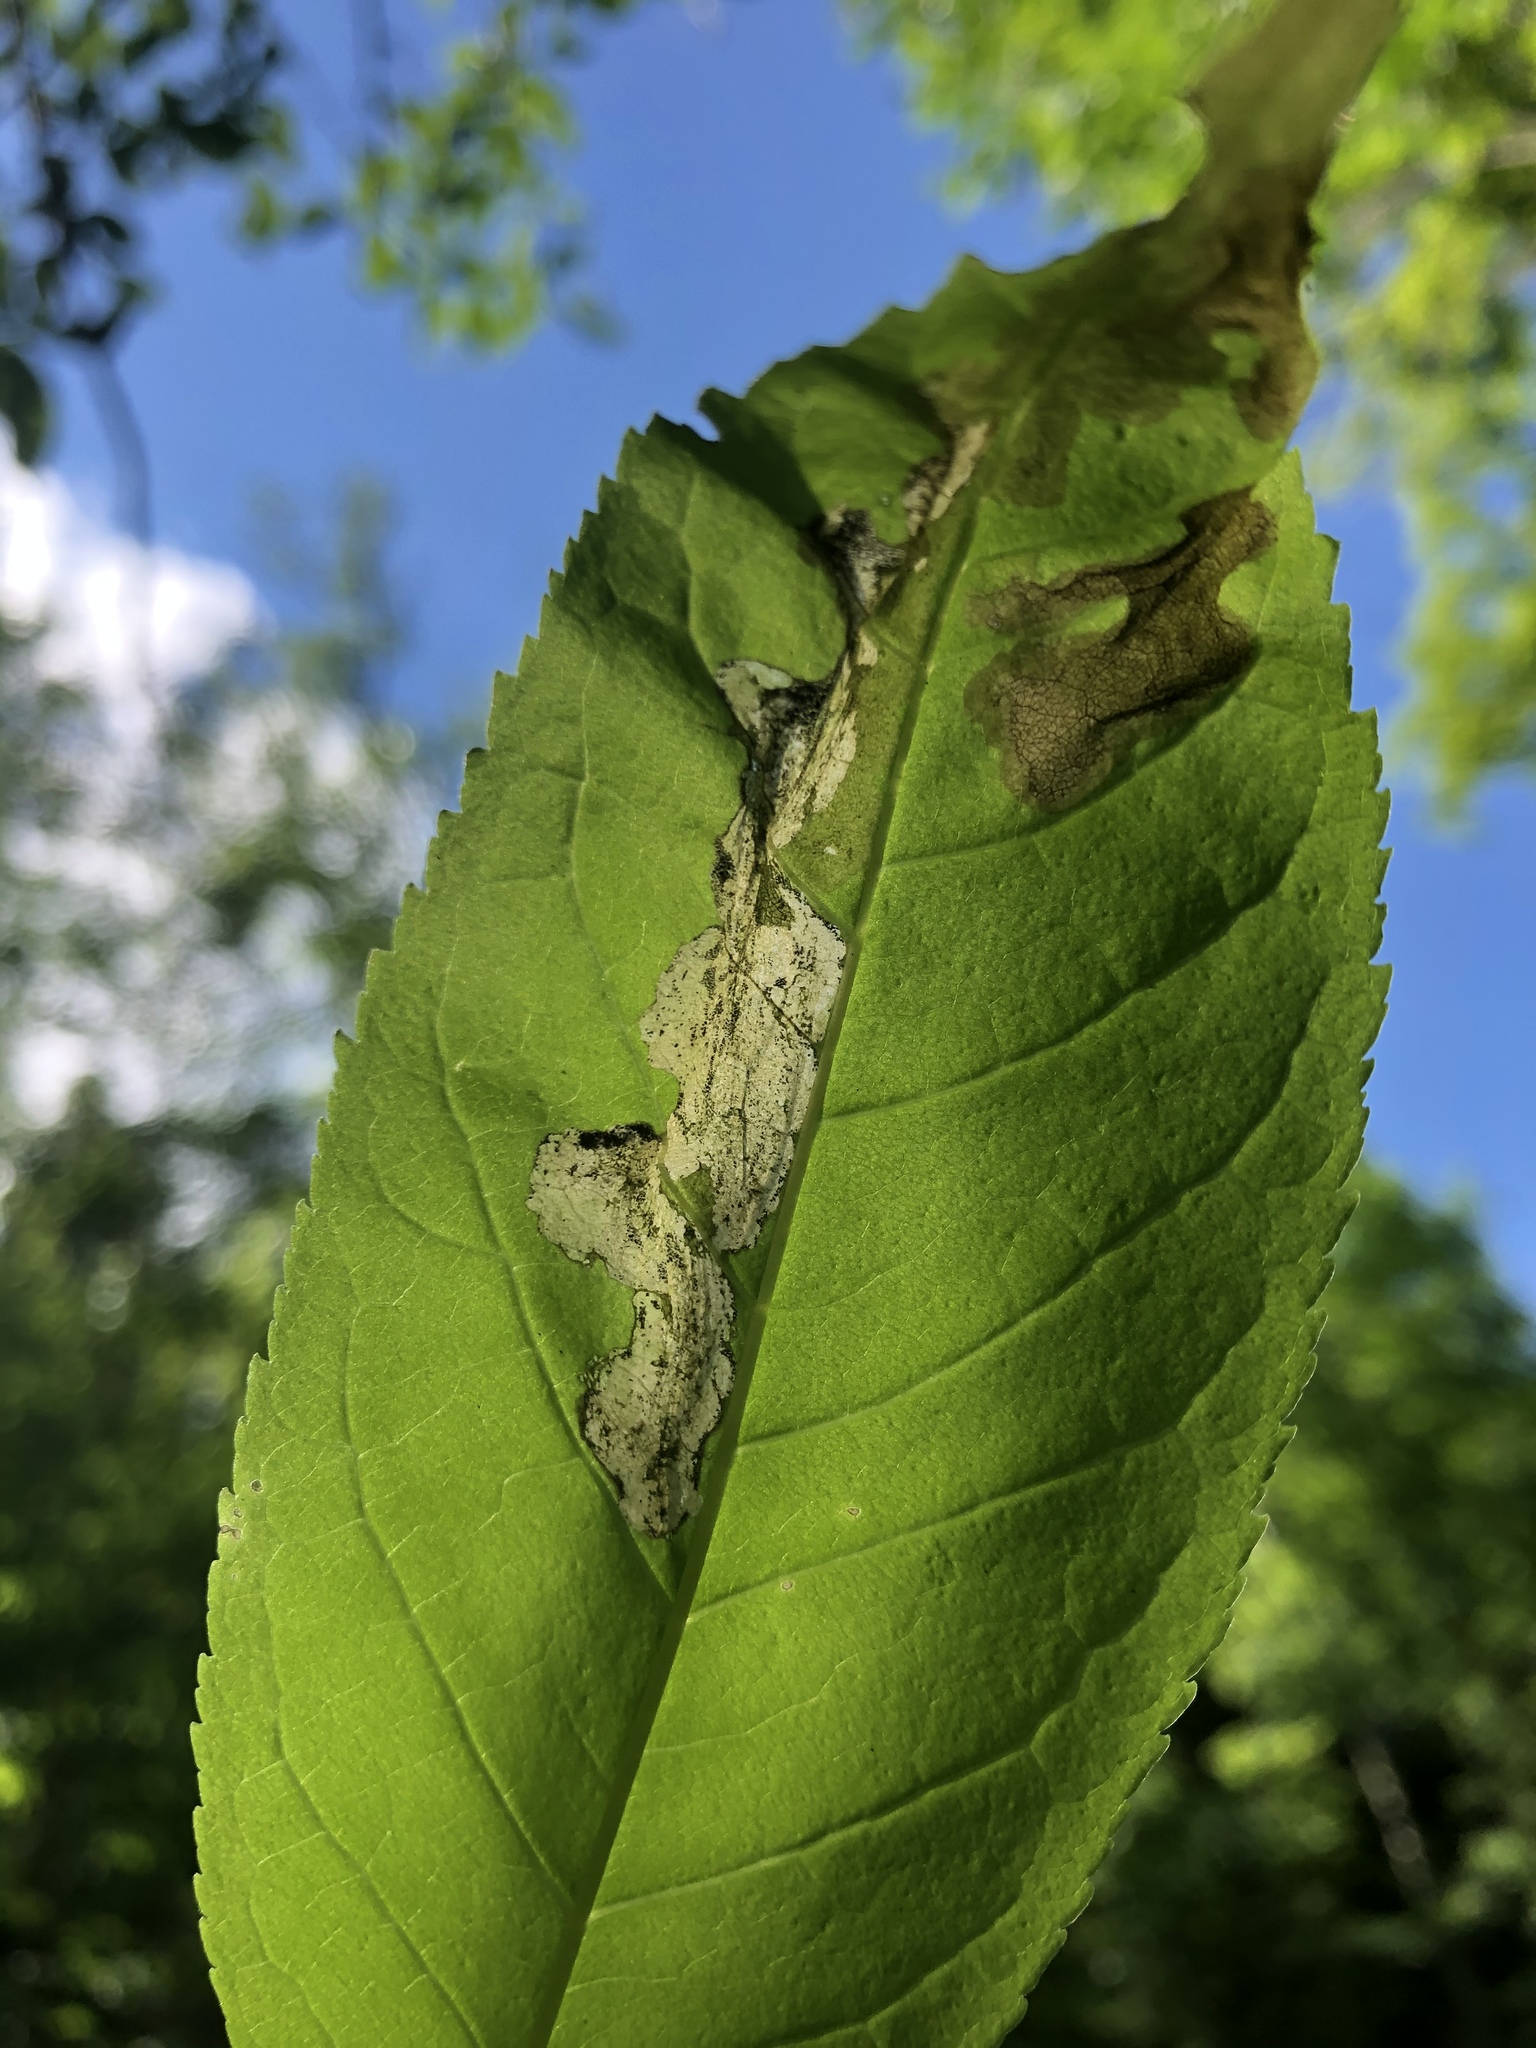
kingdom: Animalia
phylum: Arthropoda
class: Insecta
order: Lepidoptera
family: Gracillariidae
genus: Gracillaria
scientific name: Gracillaria syringella
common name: Common slender
